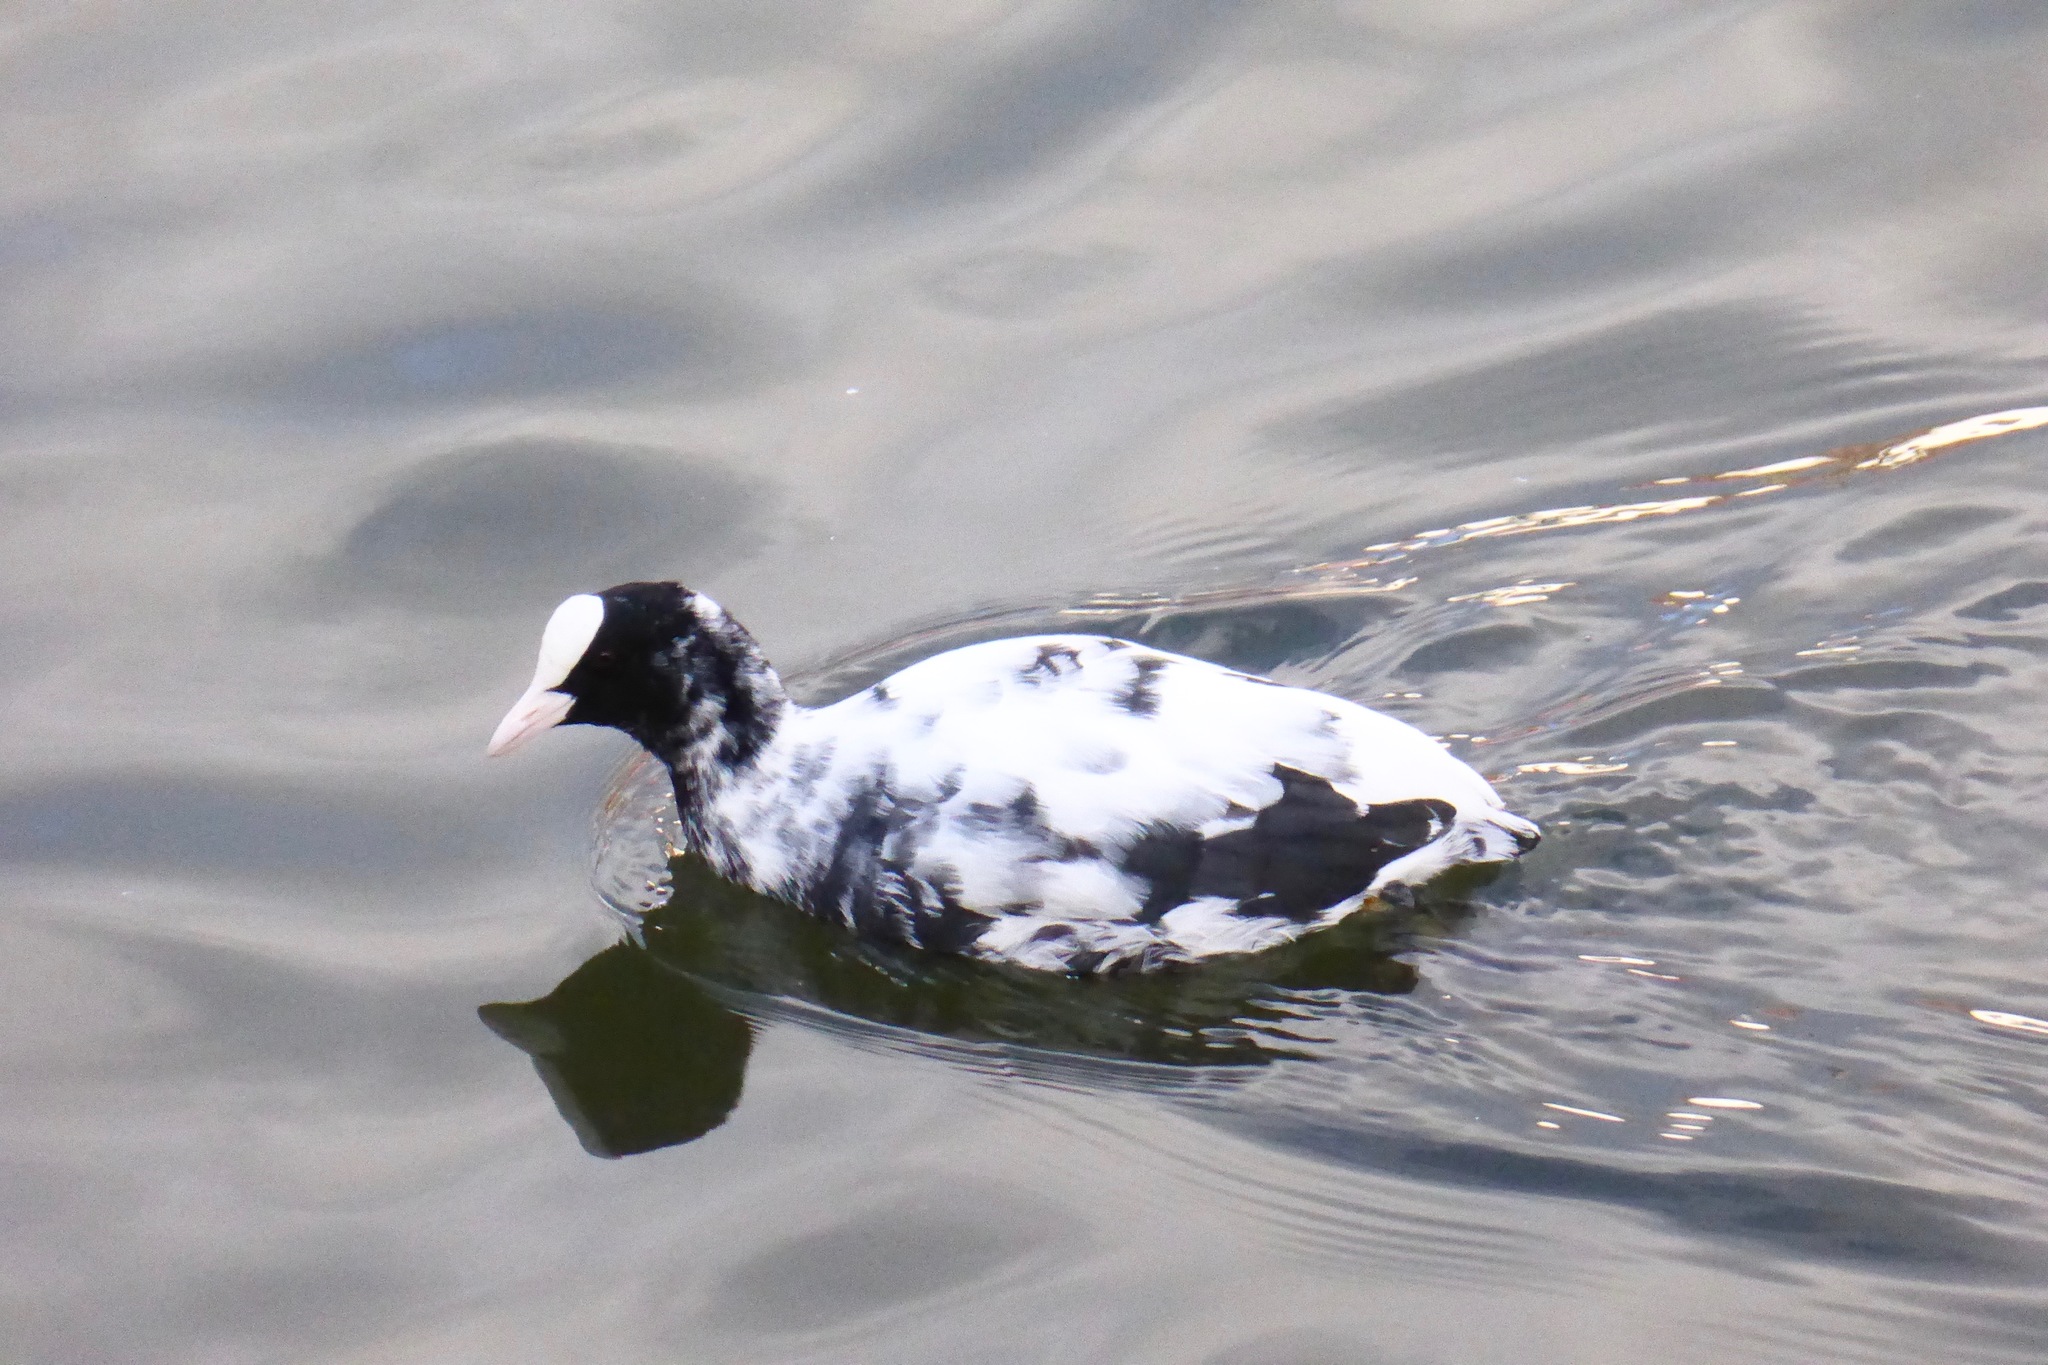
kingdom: Animalia
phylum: Chordata
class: Aves
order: Gruiformes
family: Rallidae
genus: Fulica
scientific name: Fulica atra
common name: Eurasian coot
